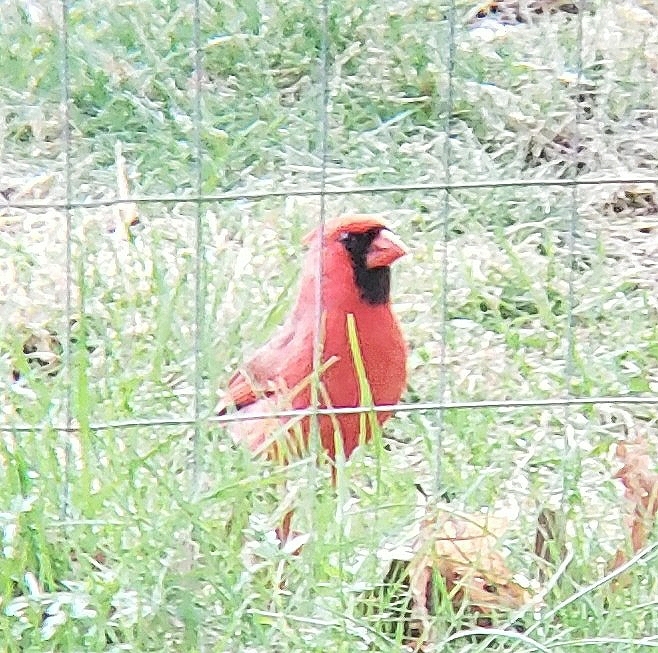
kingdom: Animalia
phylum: Chordata
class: Aves
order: Passeriformes
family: Cardinalidae
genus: Cardinalis
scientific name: Cardinalis cardinalis
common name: Northern cardinal
